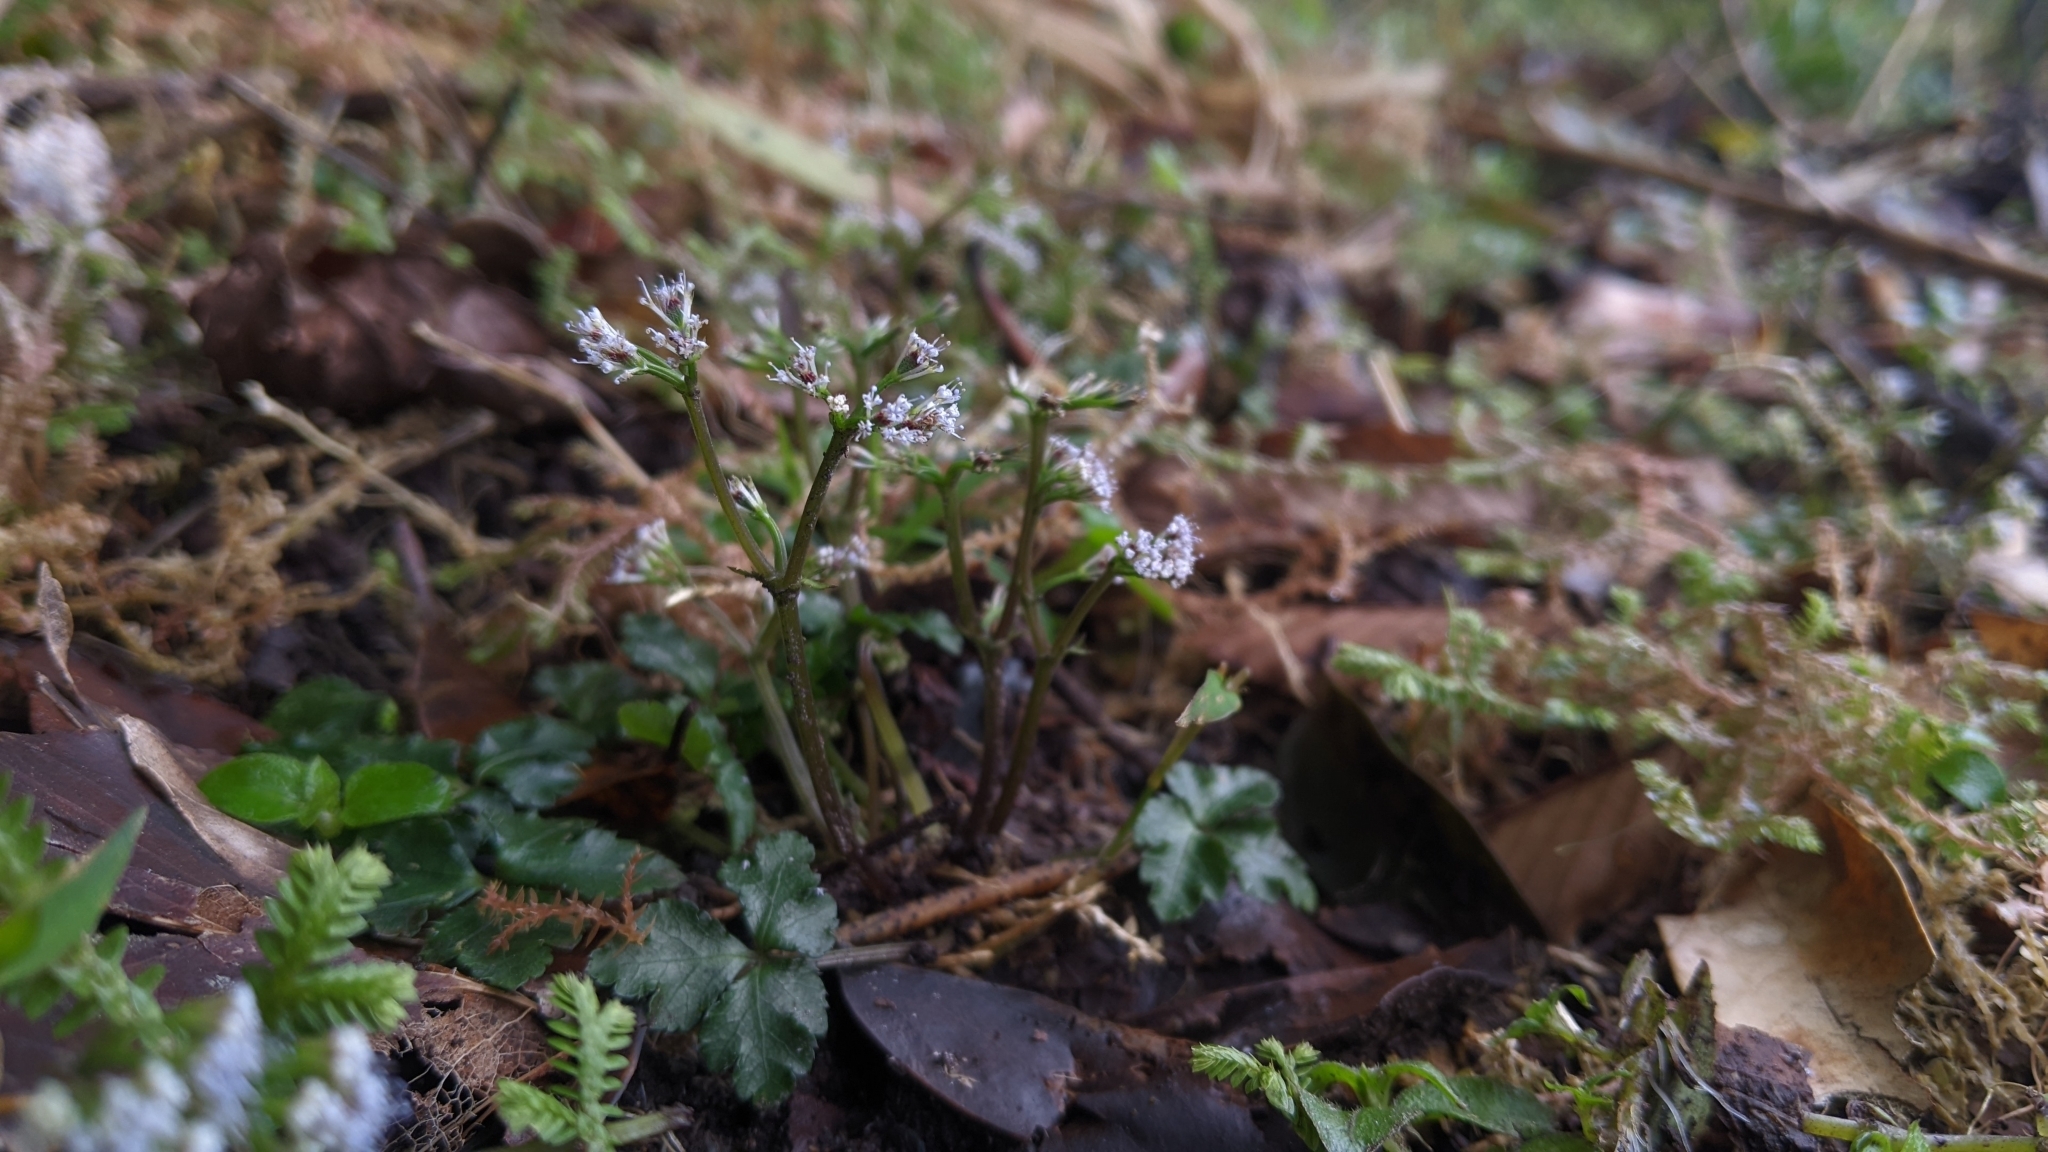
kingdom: Plantae
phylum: Tracheophyta
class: Magnoliopsida
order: Apiales
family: Apiaceae
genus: Sanicula
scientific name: Sanicula lamelligera
